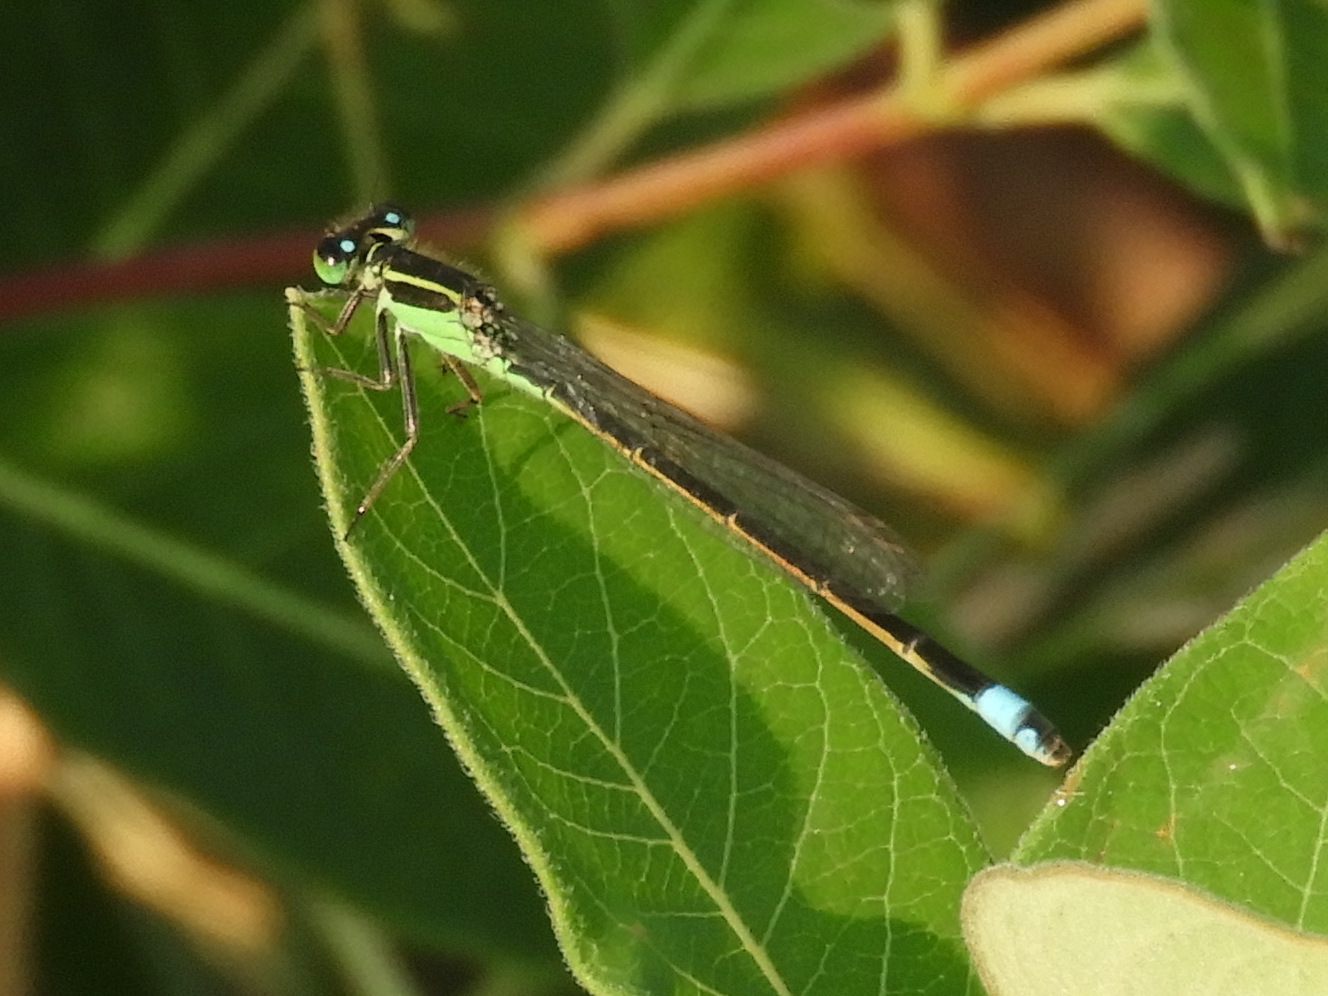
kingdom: Animalia
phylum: Arthropoda
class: Insecta
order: Odonata
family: Coenagrionidae
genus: Ischnura
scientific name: Ischnura ramburii
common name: Rambur's forktail
